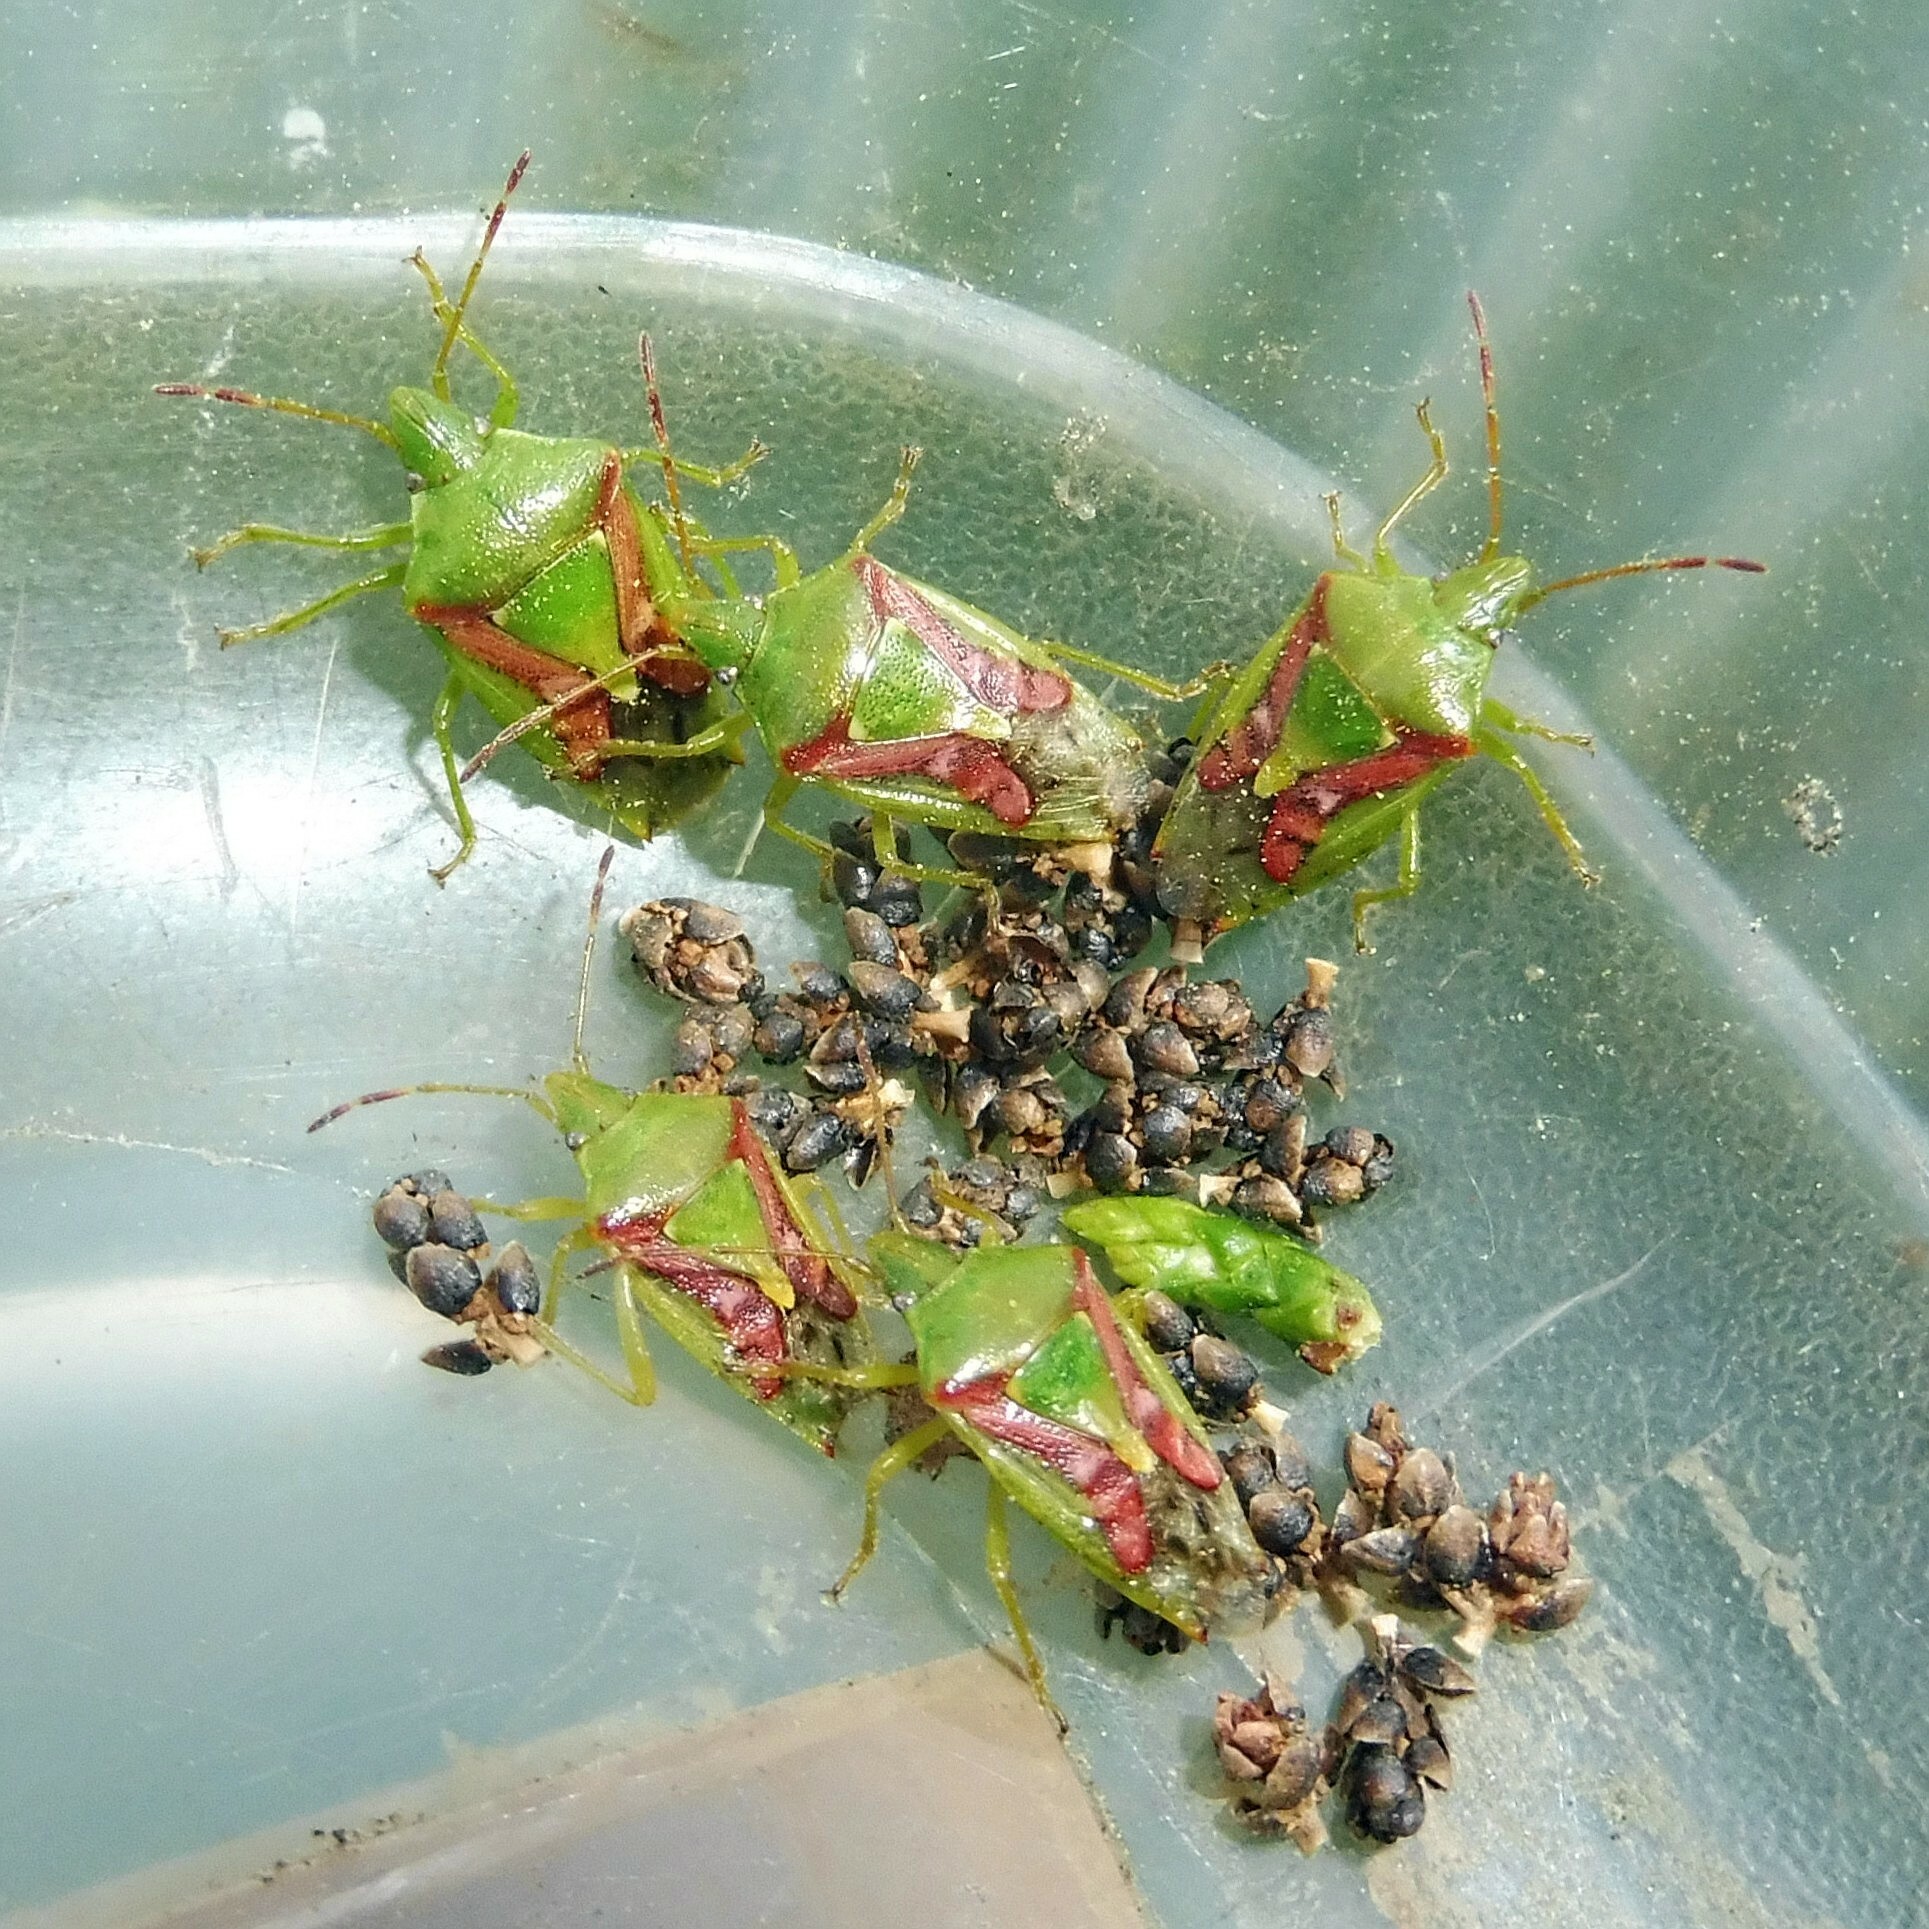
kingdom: Animalia
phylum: Arthropoda
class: Insecta
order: Hemiptera
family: Acanthosomatidae
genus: Cyphostethus
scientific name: Cyphostethus tristriatus
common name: Juniper shieldbug
